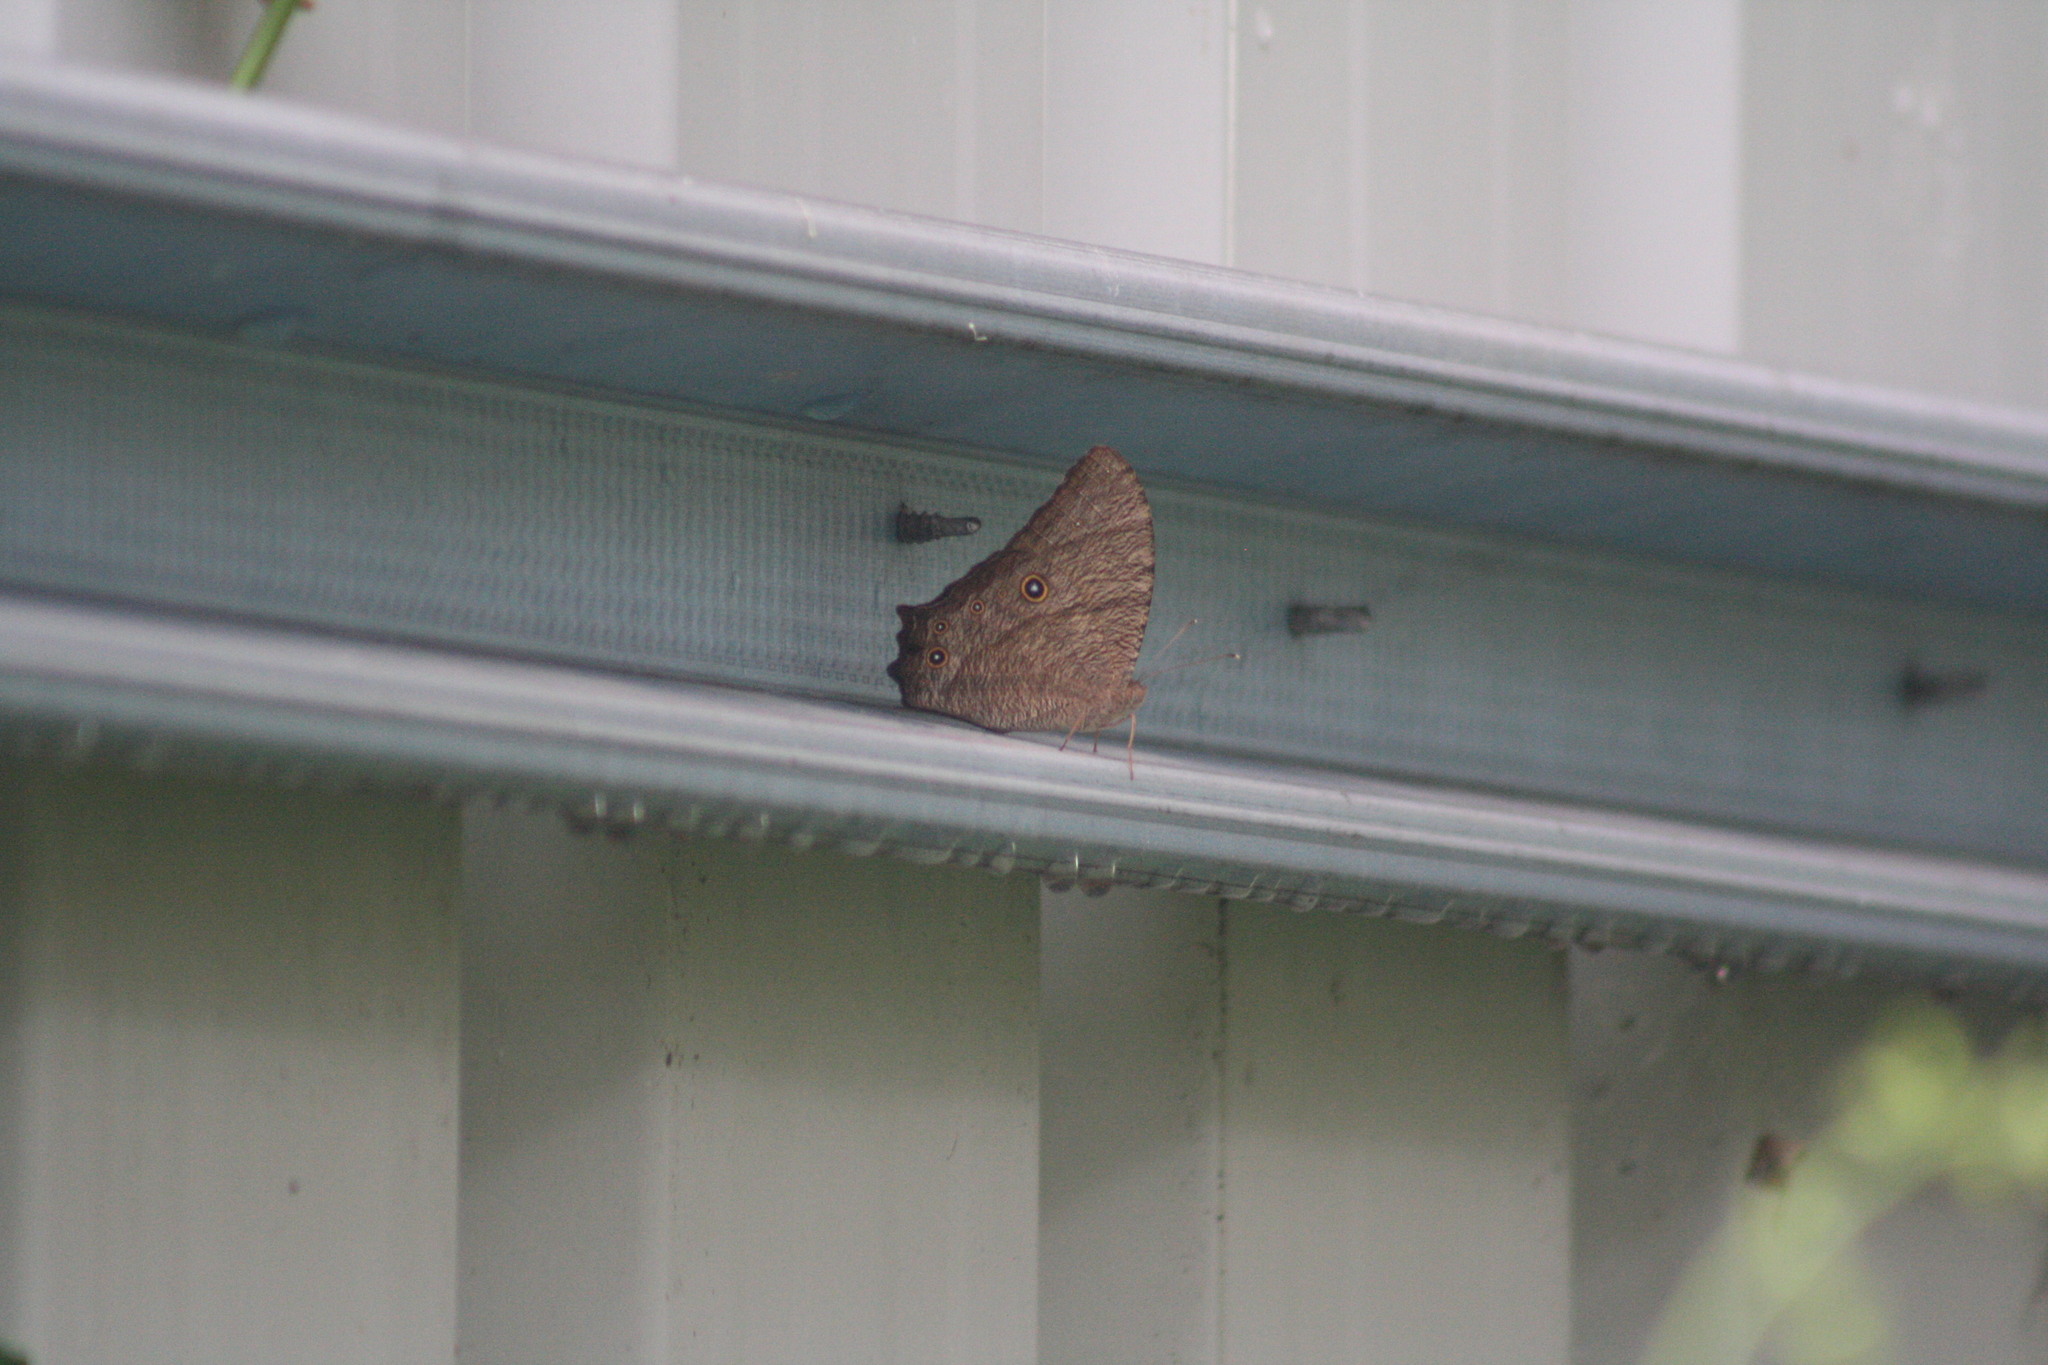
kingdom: Animalia
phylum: Arthropoda
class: Insecta
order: Lepidoptera
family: Nymphalidae
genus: Melanitis
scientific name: Melanitis leda
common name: Twilight brown
